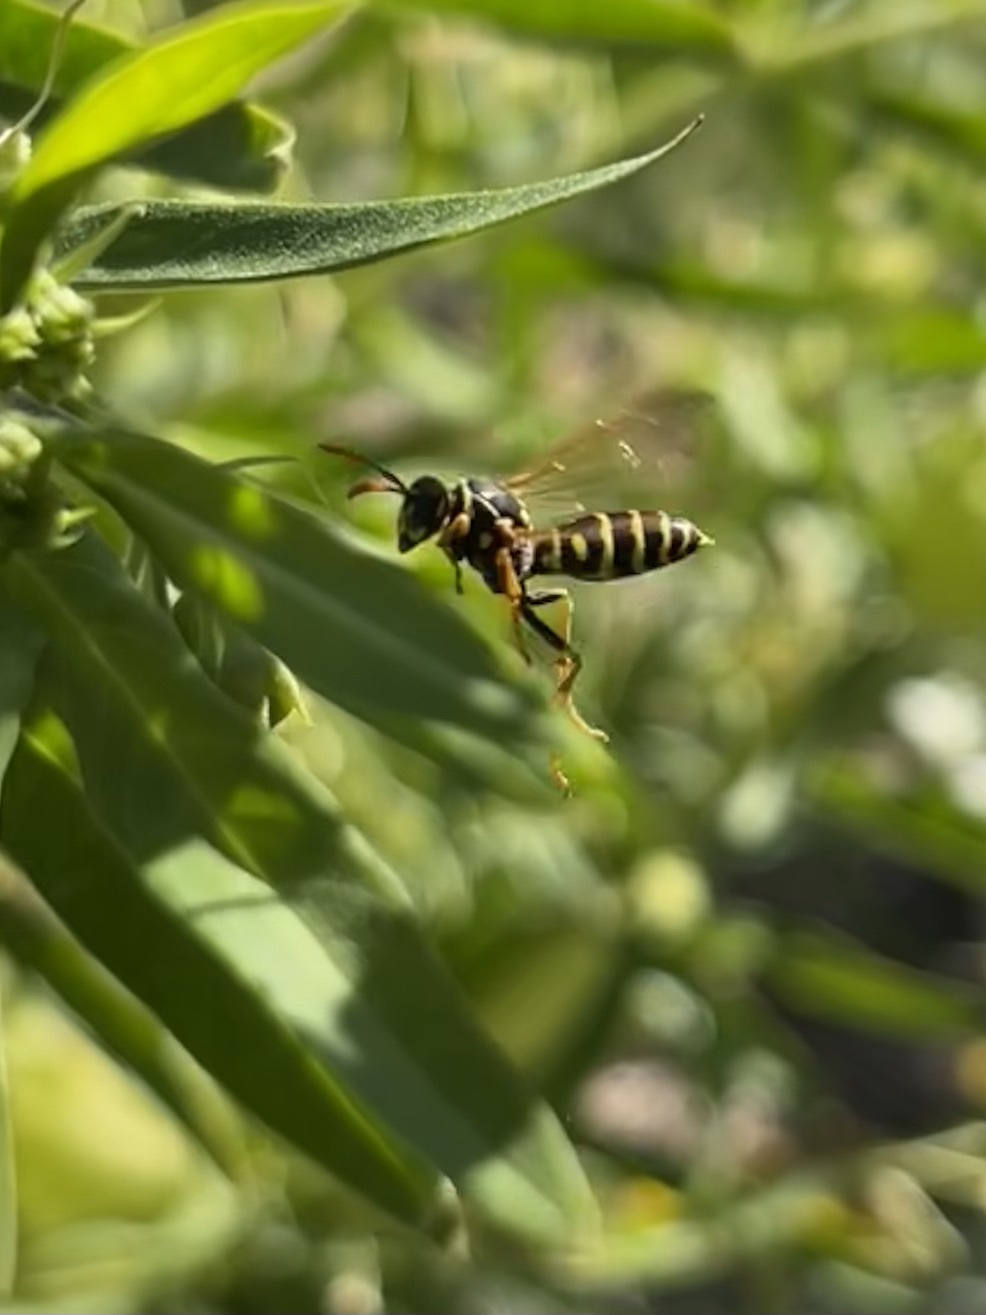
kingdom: Animalia
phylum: Arthropoda
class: Insecta
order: Hymenoptera
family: Eumenidae
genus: Polistes
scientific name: Polistes dominula
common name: Paper wasp
